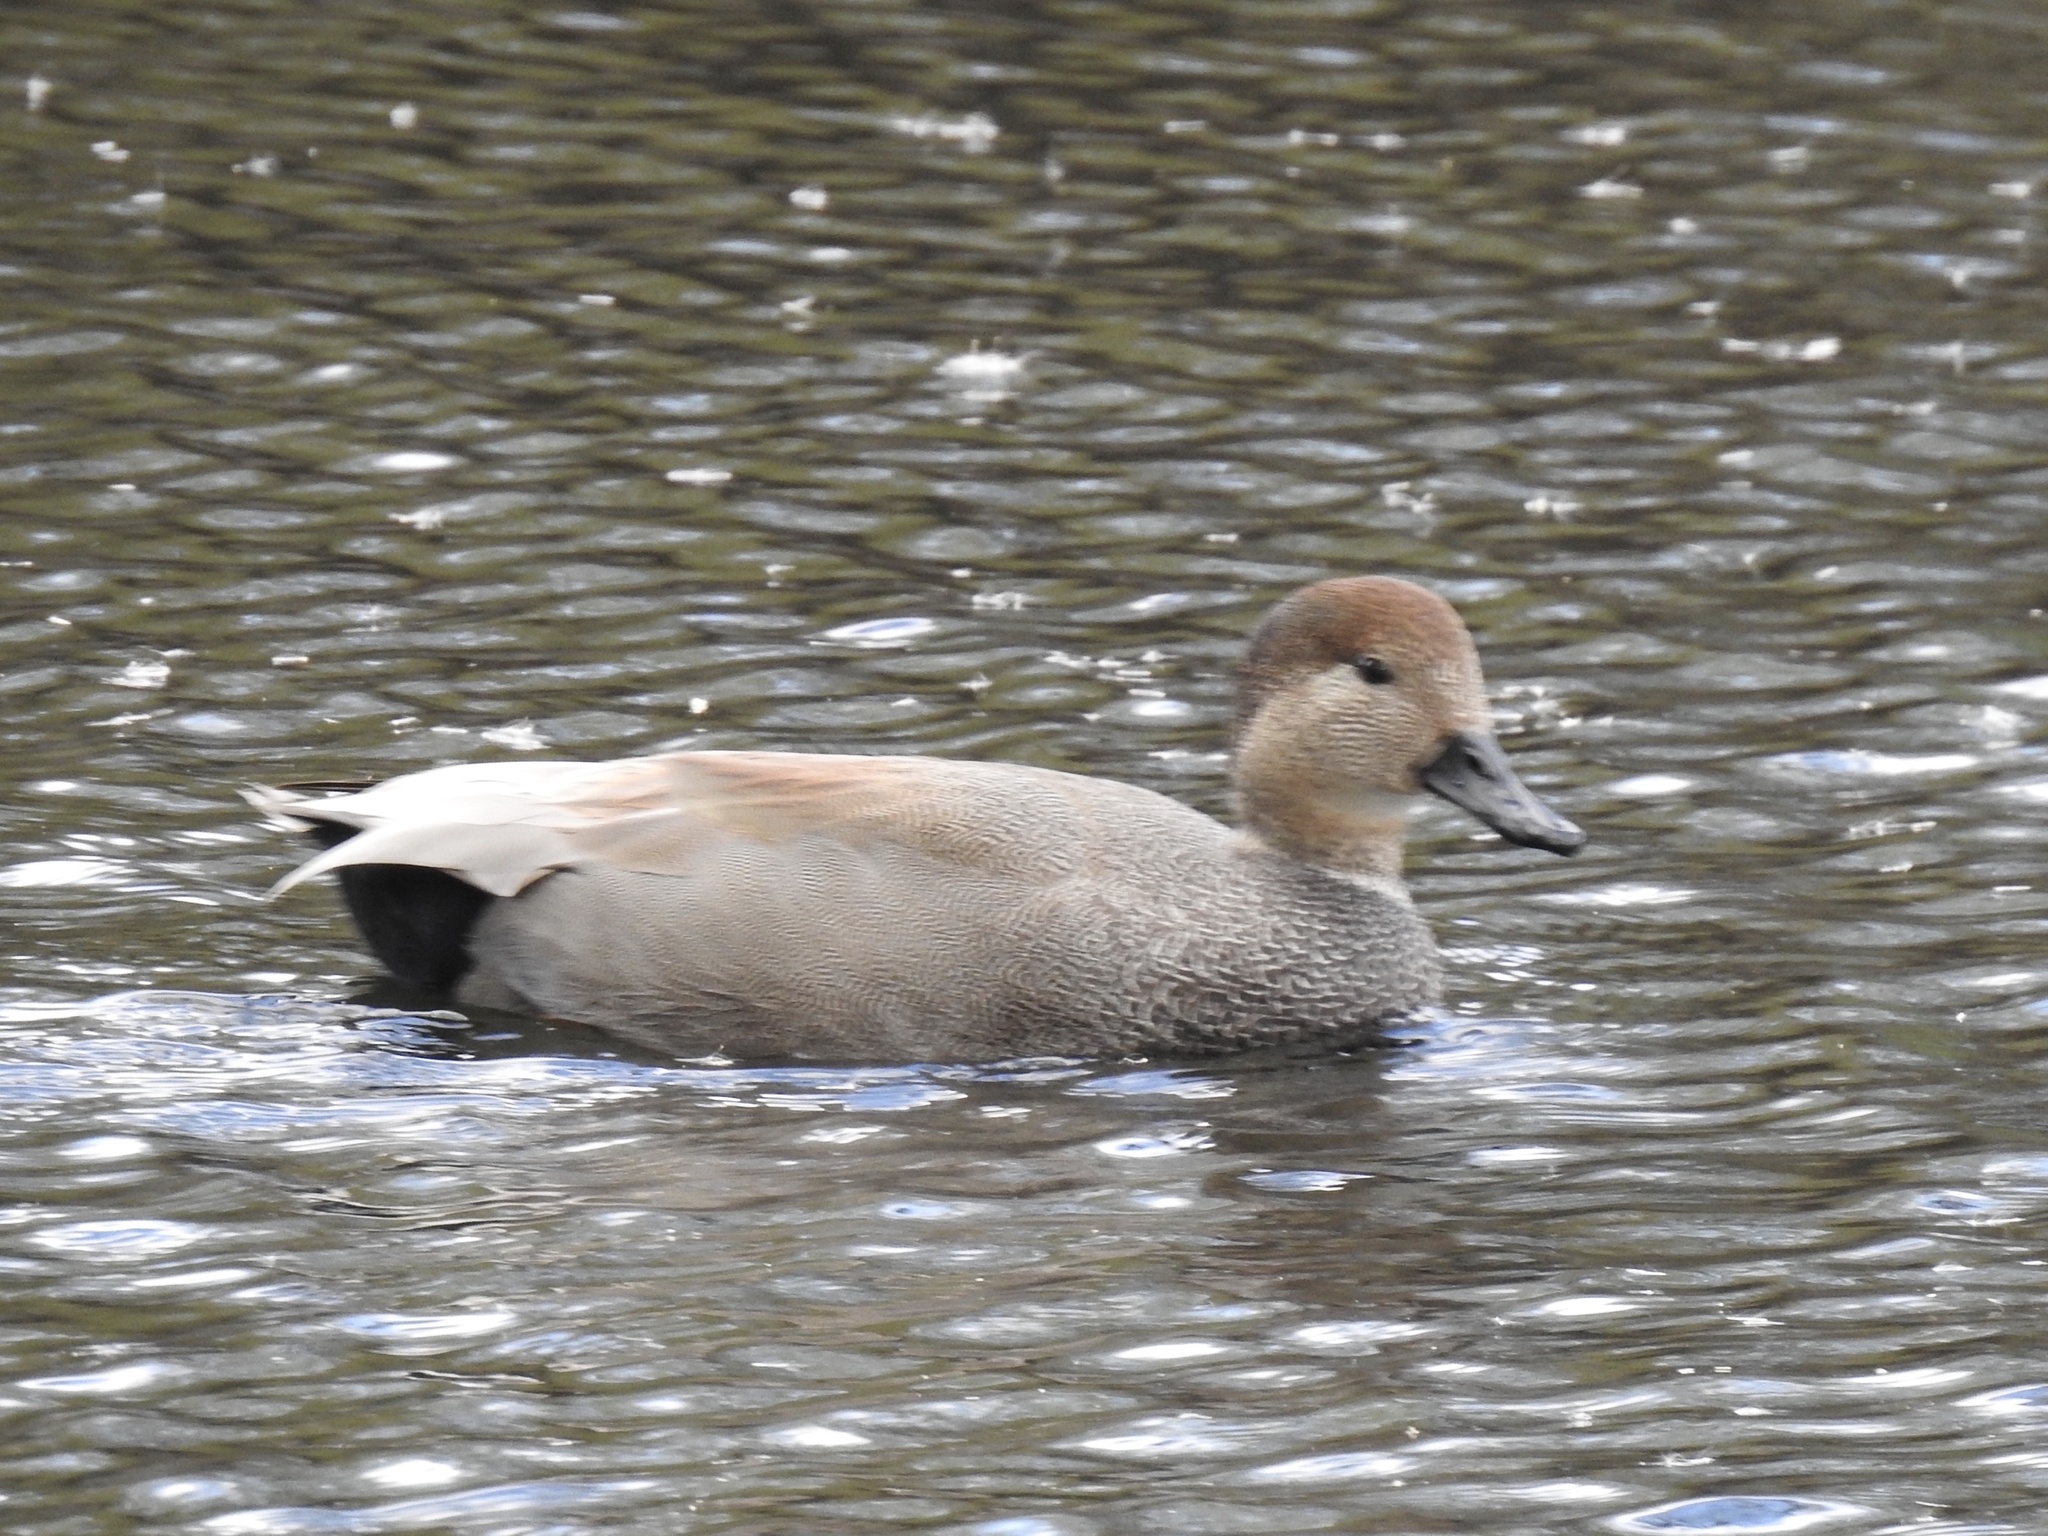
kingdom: Animalia
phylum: Chordata
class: Aves
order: Anseriformes
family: Anatidae
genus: Mareca
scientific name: Mareca strepera
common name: Gadwall
